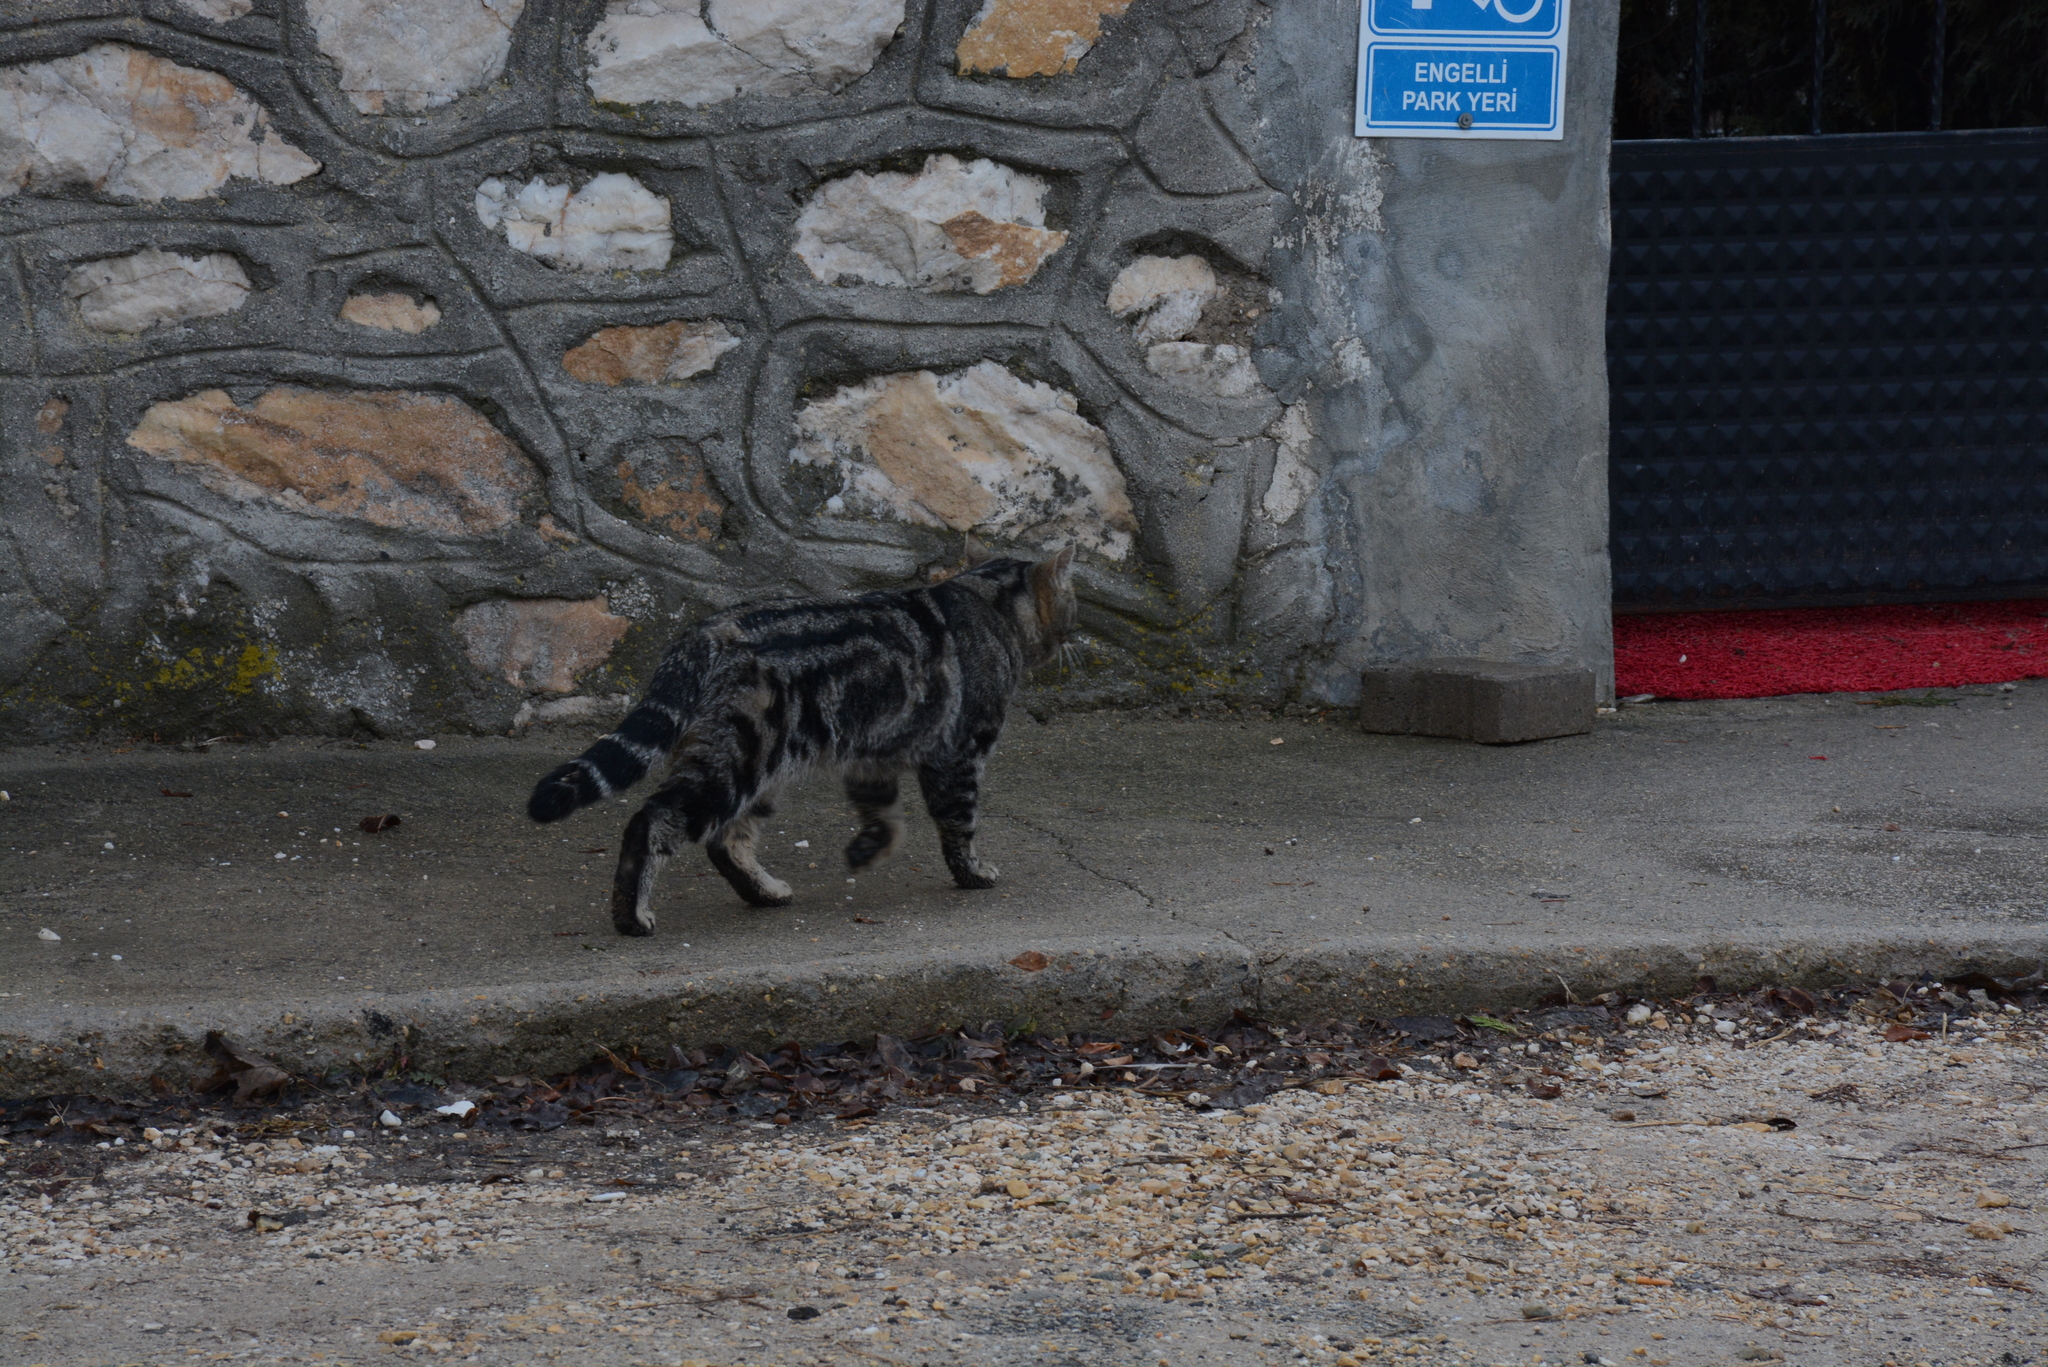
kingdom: Animalia
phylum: Chordata
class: Mammalia
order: Carnivora
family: Felidae
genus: Felis
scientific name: Felis catus
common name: Domestic cat
